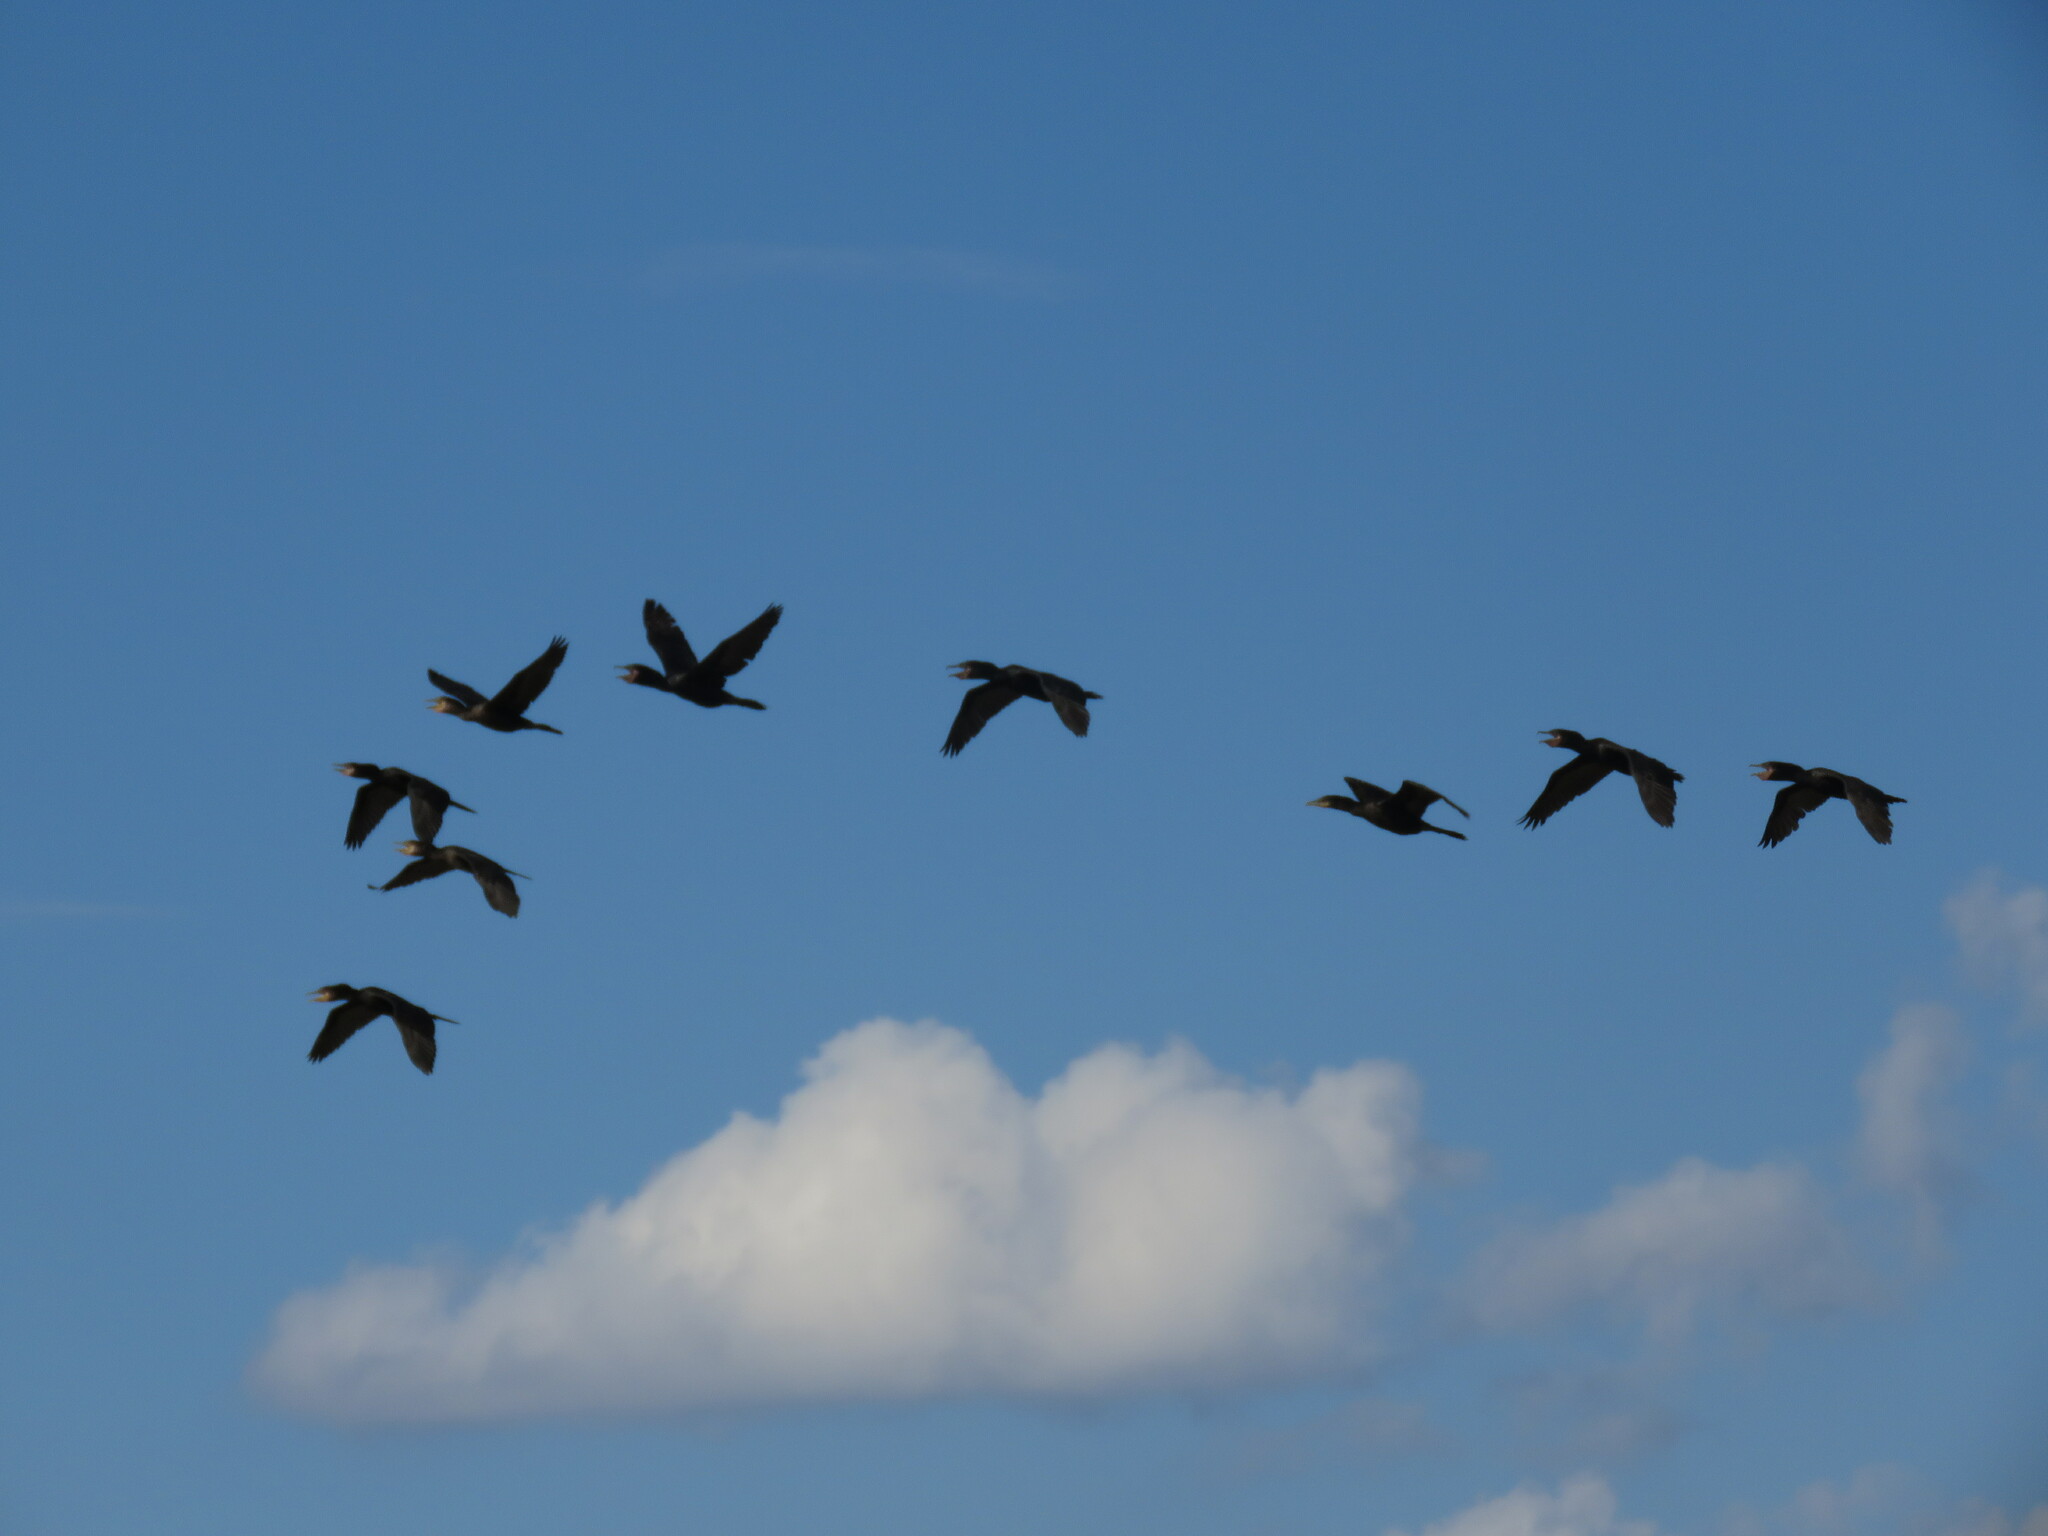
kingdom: Animalia
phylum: Chordata
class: Aves
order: Suliformes
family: Phalacrocoracidae
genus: Phalacrocorax
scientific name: Phalacrocorax brasilianus
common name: Neotropic cormorant
